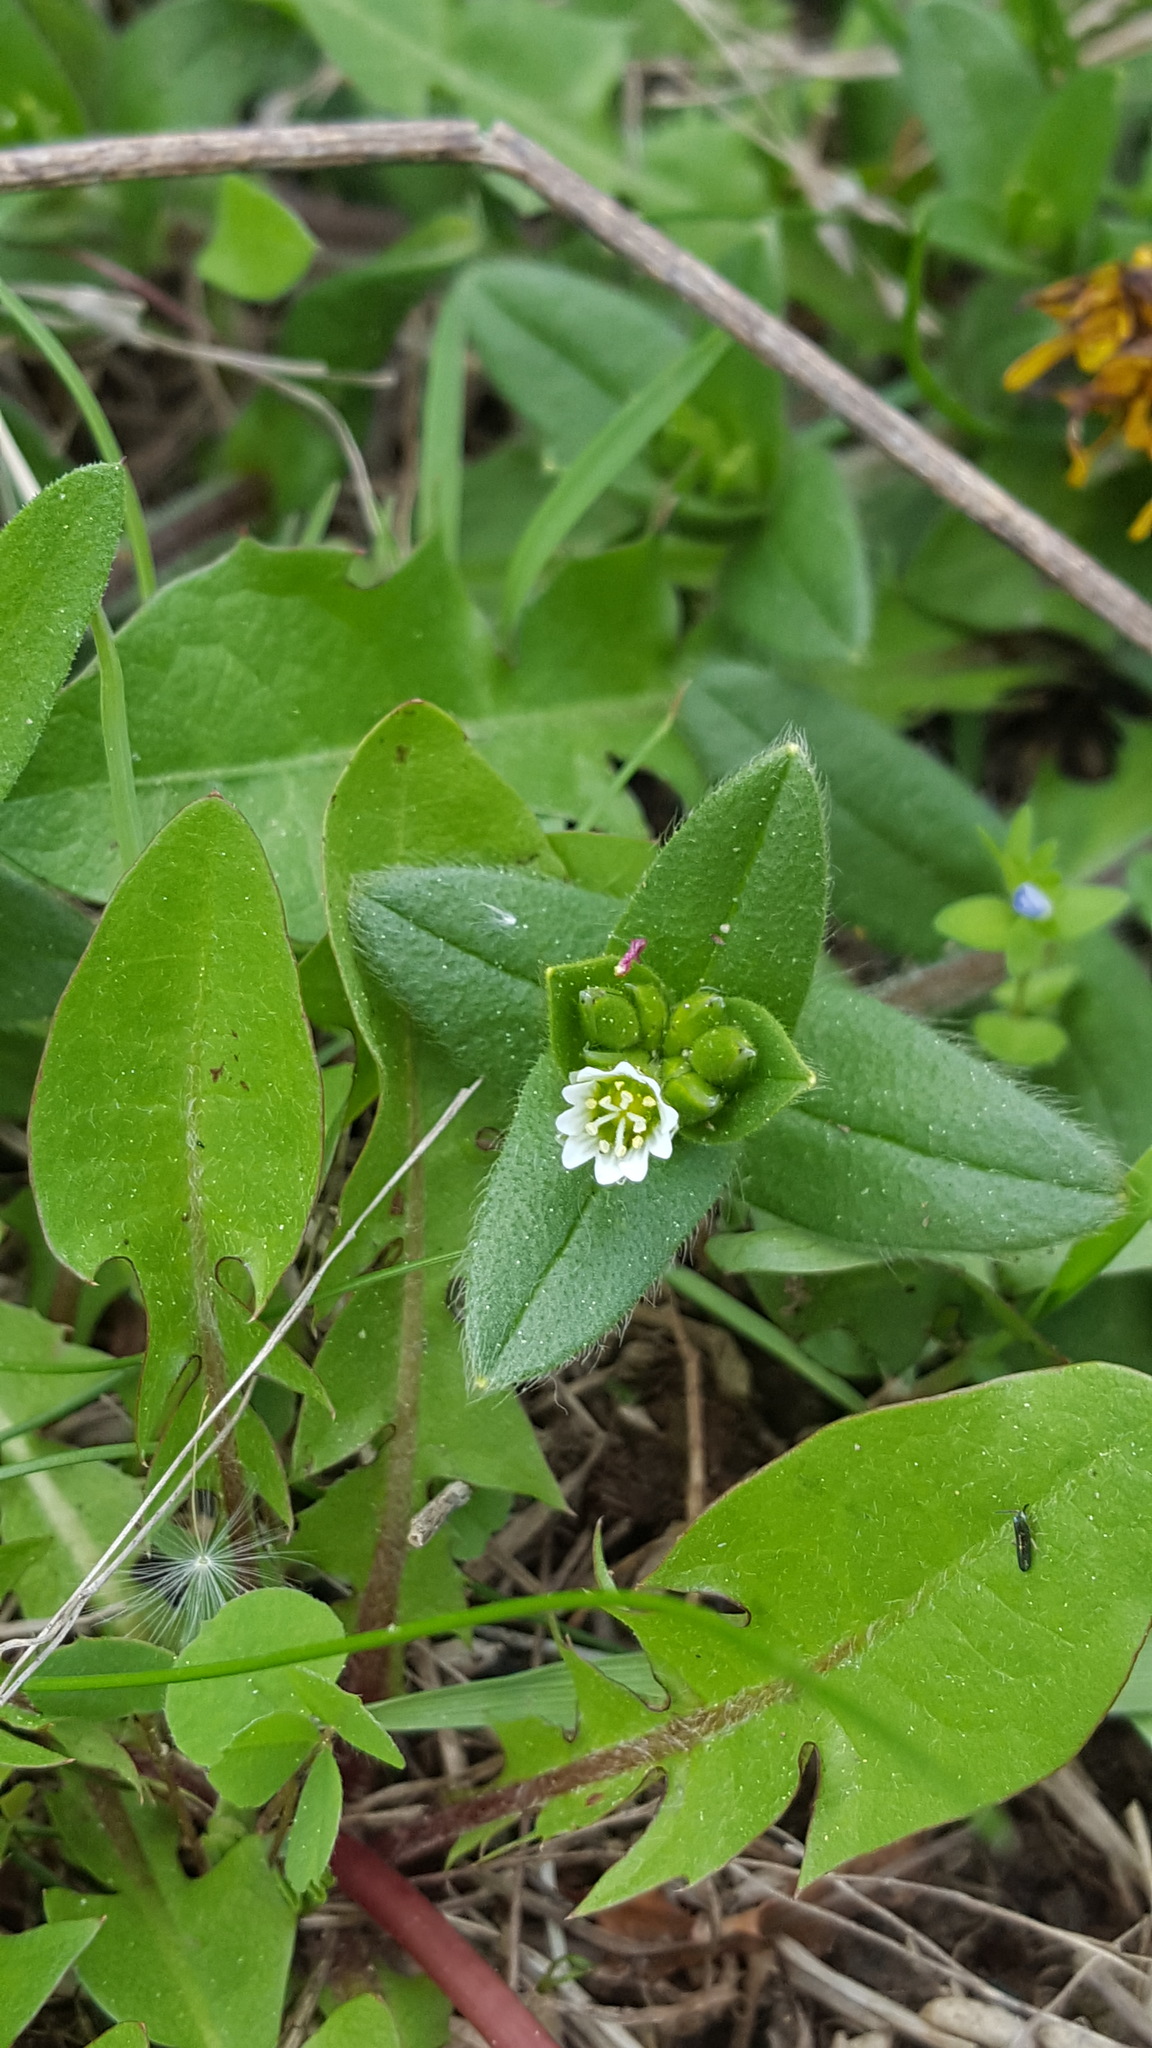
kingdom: Plantae
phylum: Tracheophyta
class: Magnoliopsida
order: Caryophyllales
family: Caryophyllaceae
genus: Cerastium
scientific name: Cerastium fontanum
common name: Common mouse-ear
